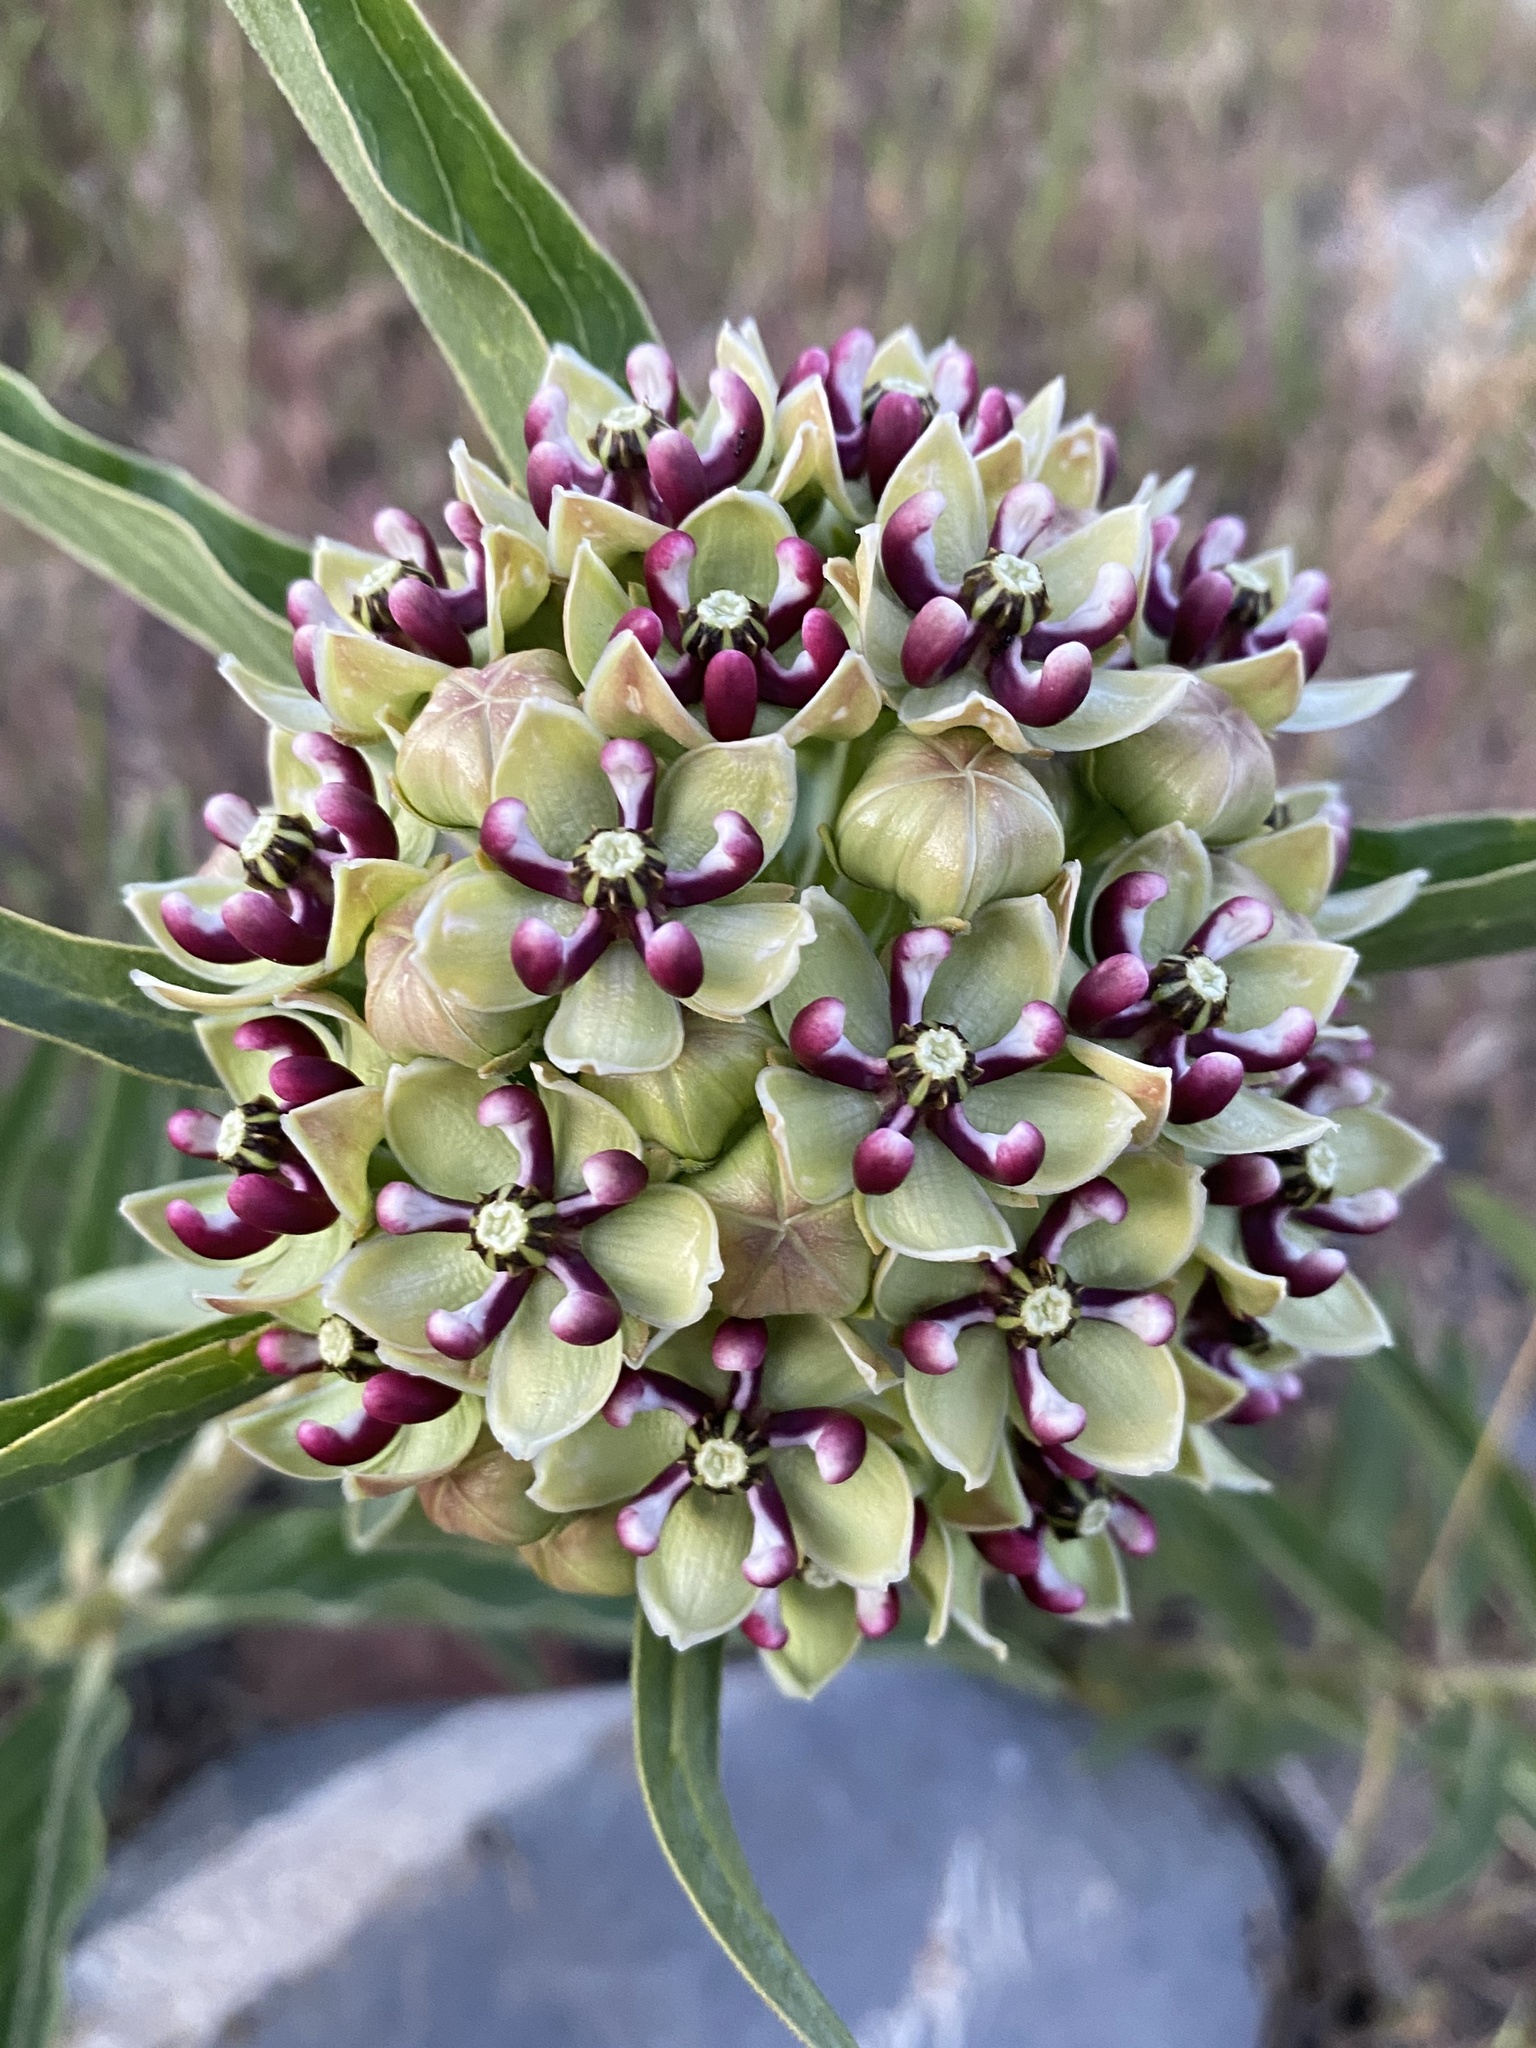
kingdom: Plantae
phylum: Tracheophyta
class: Magnoliopsida
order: Gentianales
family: Apocynaceae
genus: Asclepias
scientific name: Asclepias asperula
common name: Antelope horns
